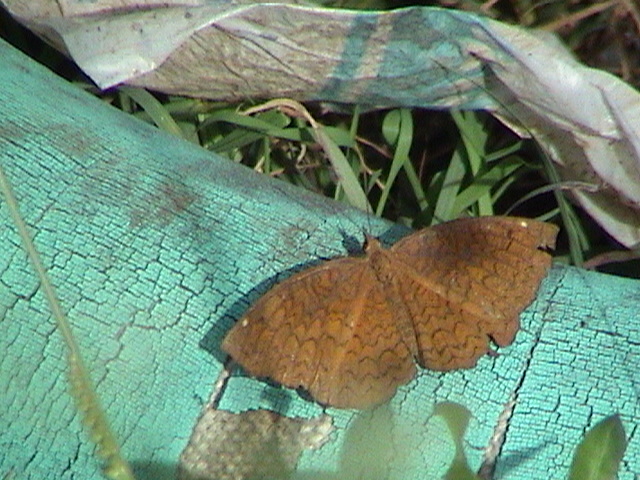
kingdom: Animalia
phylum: Arthropoda
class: Insecta
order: Lepidoptera
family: Nymphalidae
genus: Ariadne
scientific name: Ariadne merione
